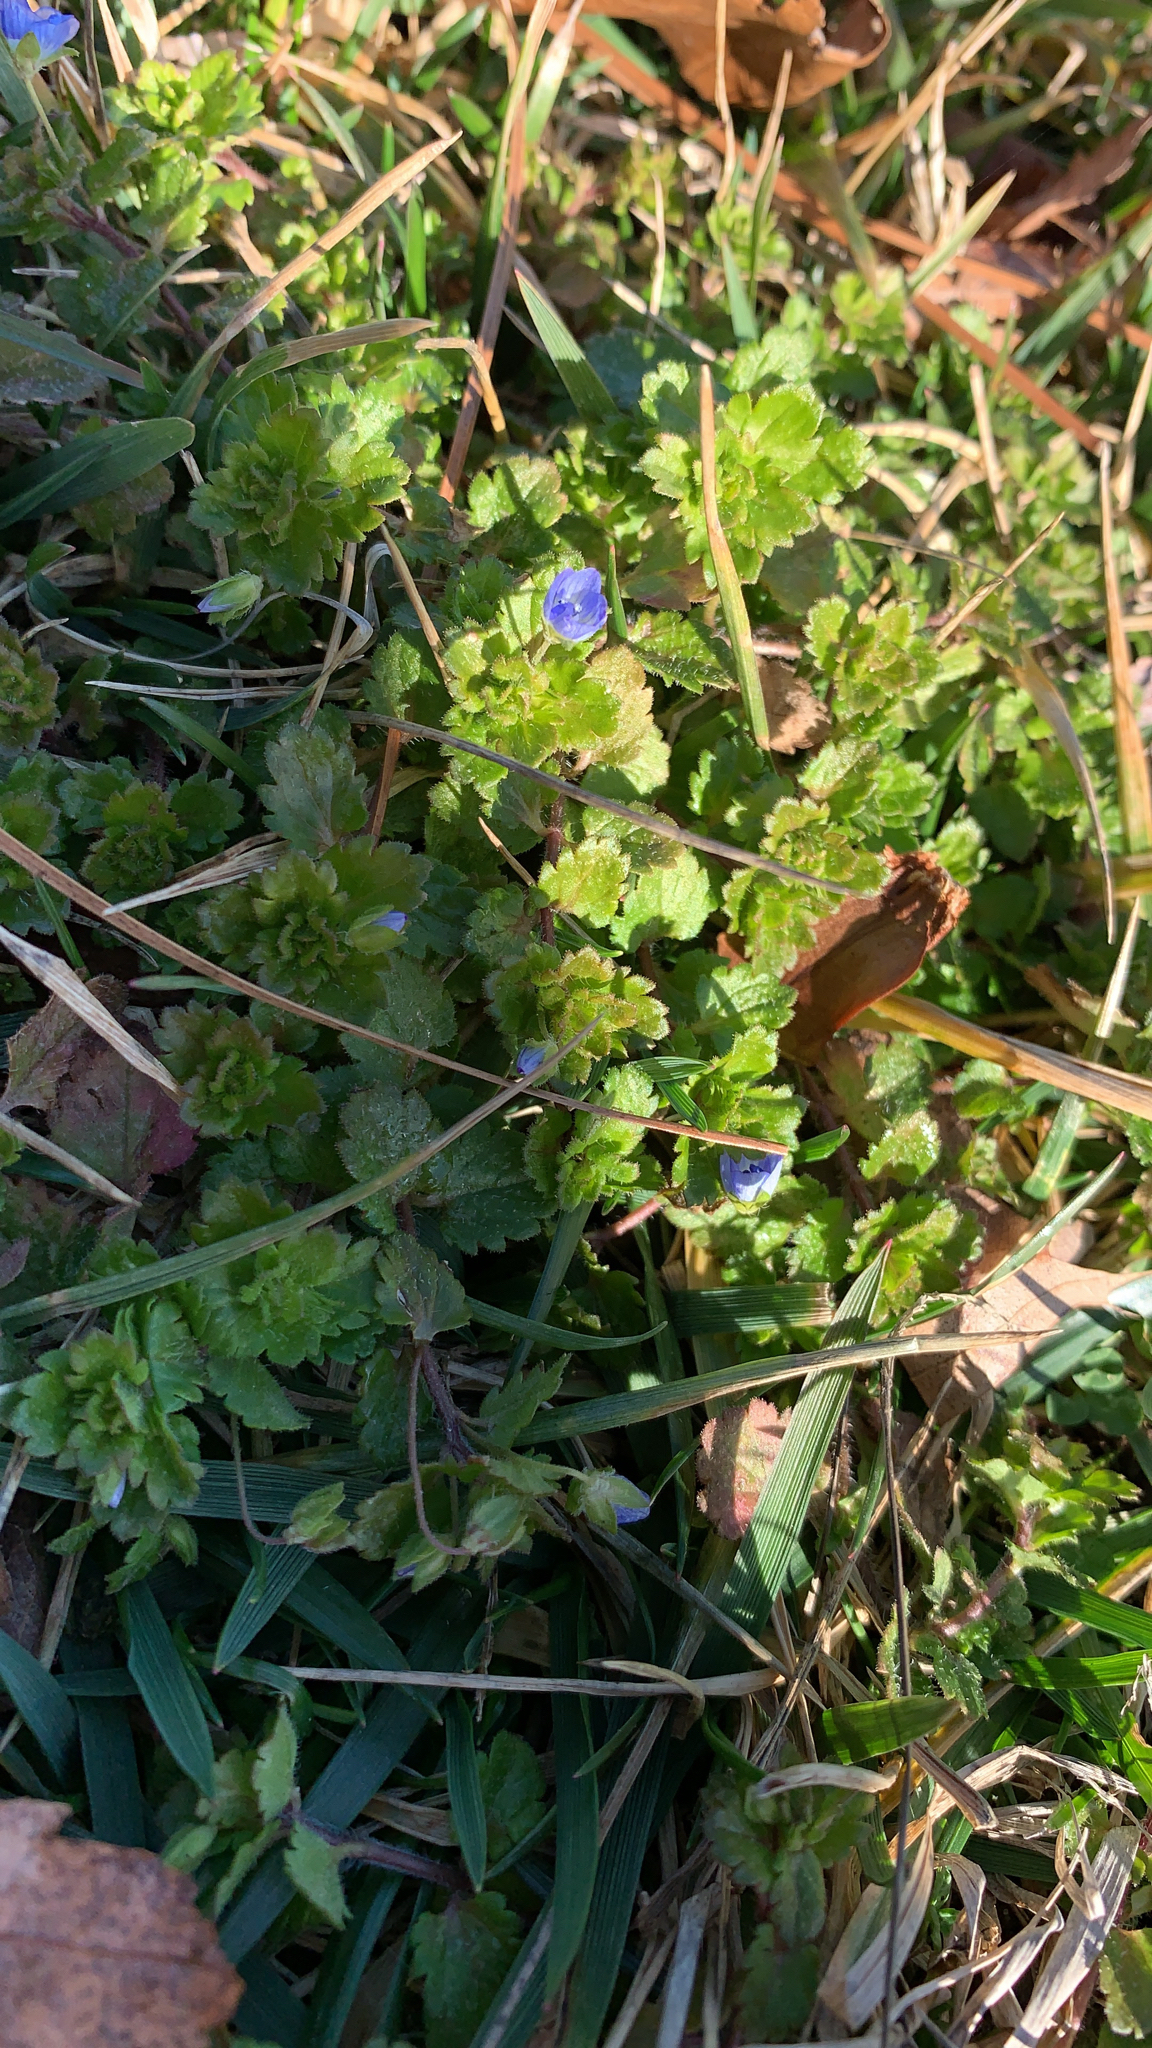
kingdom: Plantae
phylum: Tracheophyta
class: Magnoliopsida
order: Lamiales
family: Plantaginaceae
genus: Veronica
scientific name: Veronica persica
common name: Common field-speedwell
